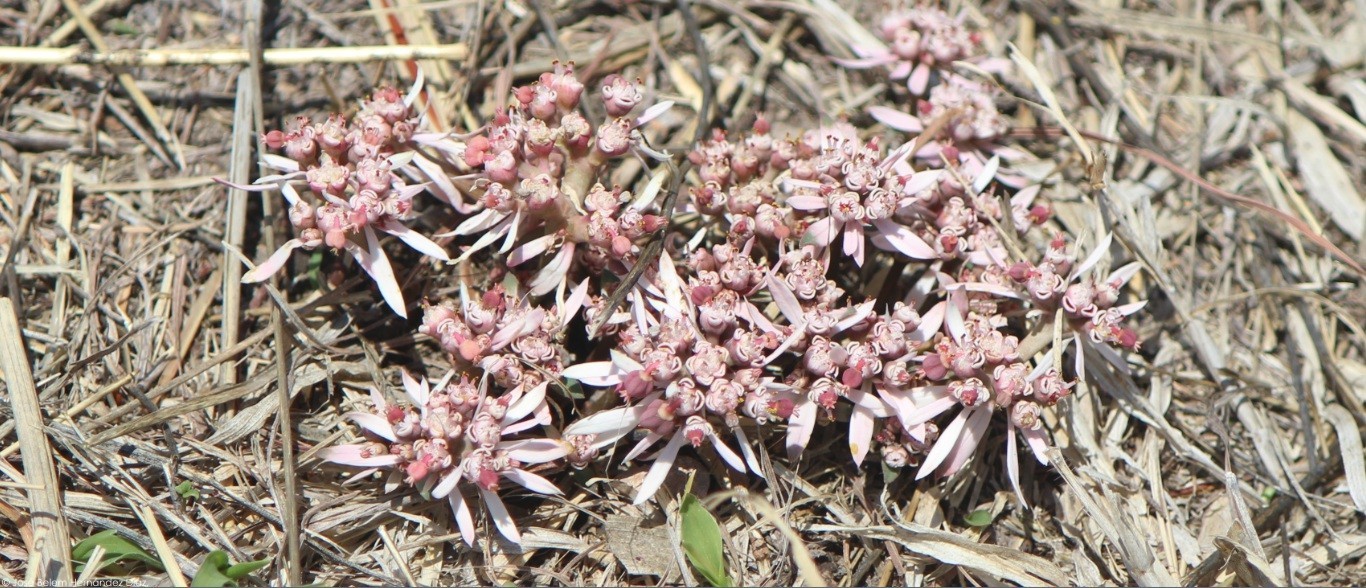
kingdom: Plantae
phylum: Tracheophyta
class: Magnoliopsida
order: Malpighiales
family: Euphorbiaceae
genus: Euphorbia
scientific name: Euphorbia radians
